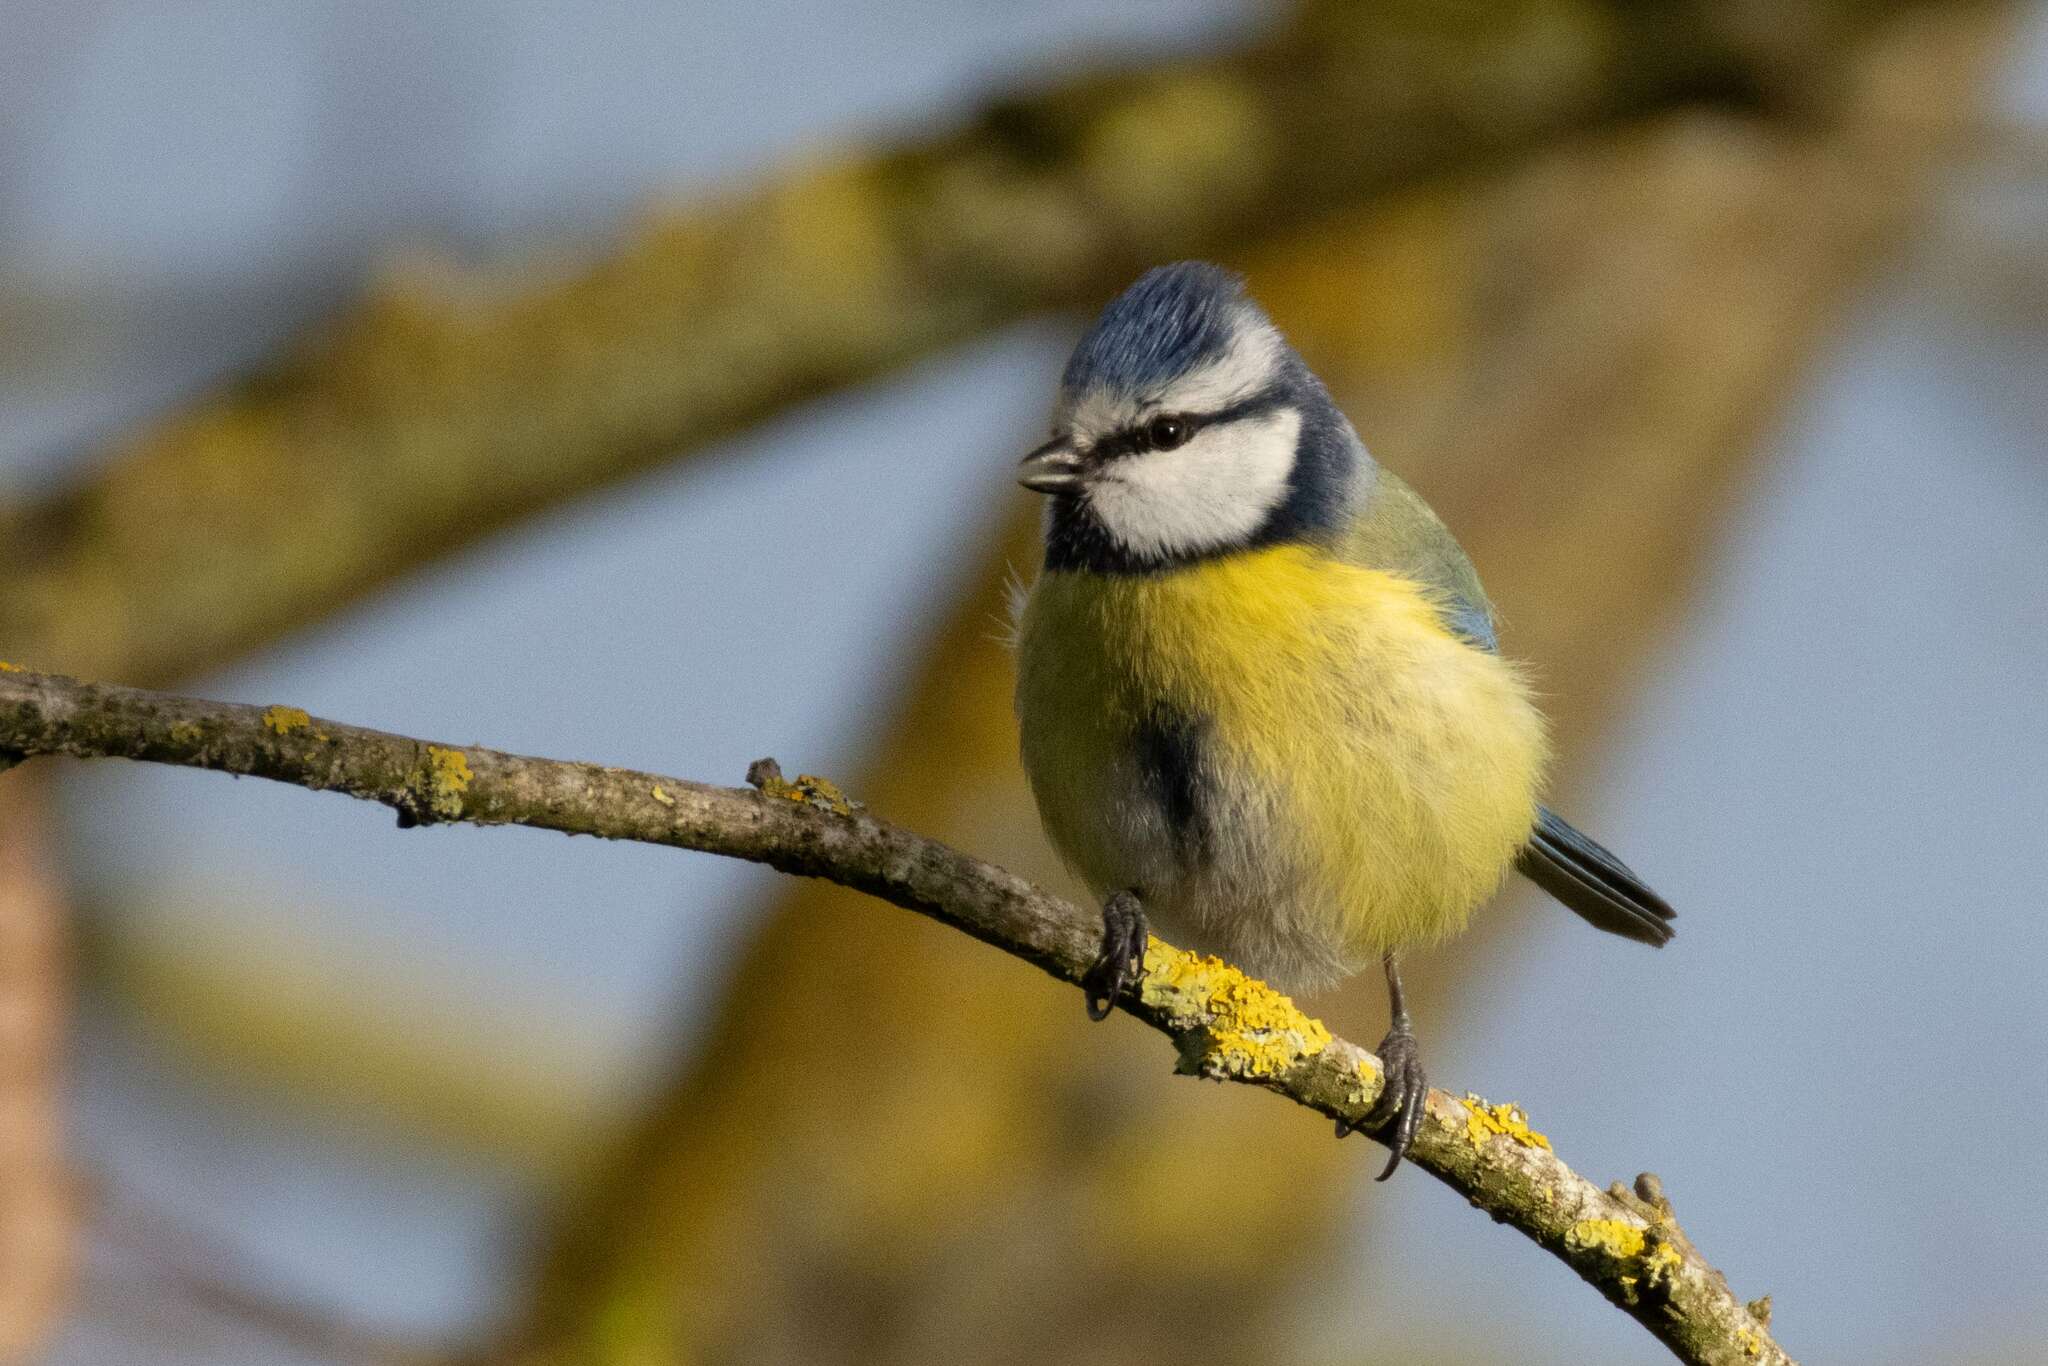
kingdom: Animalia
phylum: Chordata
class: Aves
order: Passeriformes
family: Paridae
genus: Cyanistes
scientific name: Cyanistes caeruleus
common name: Eurasian blue tit
